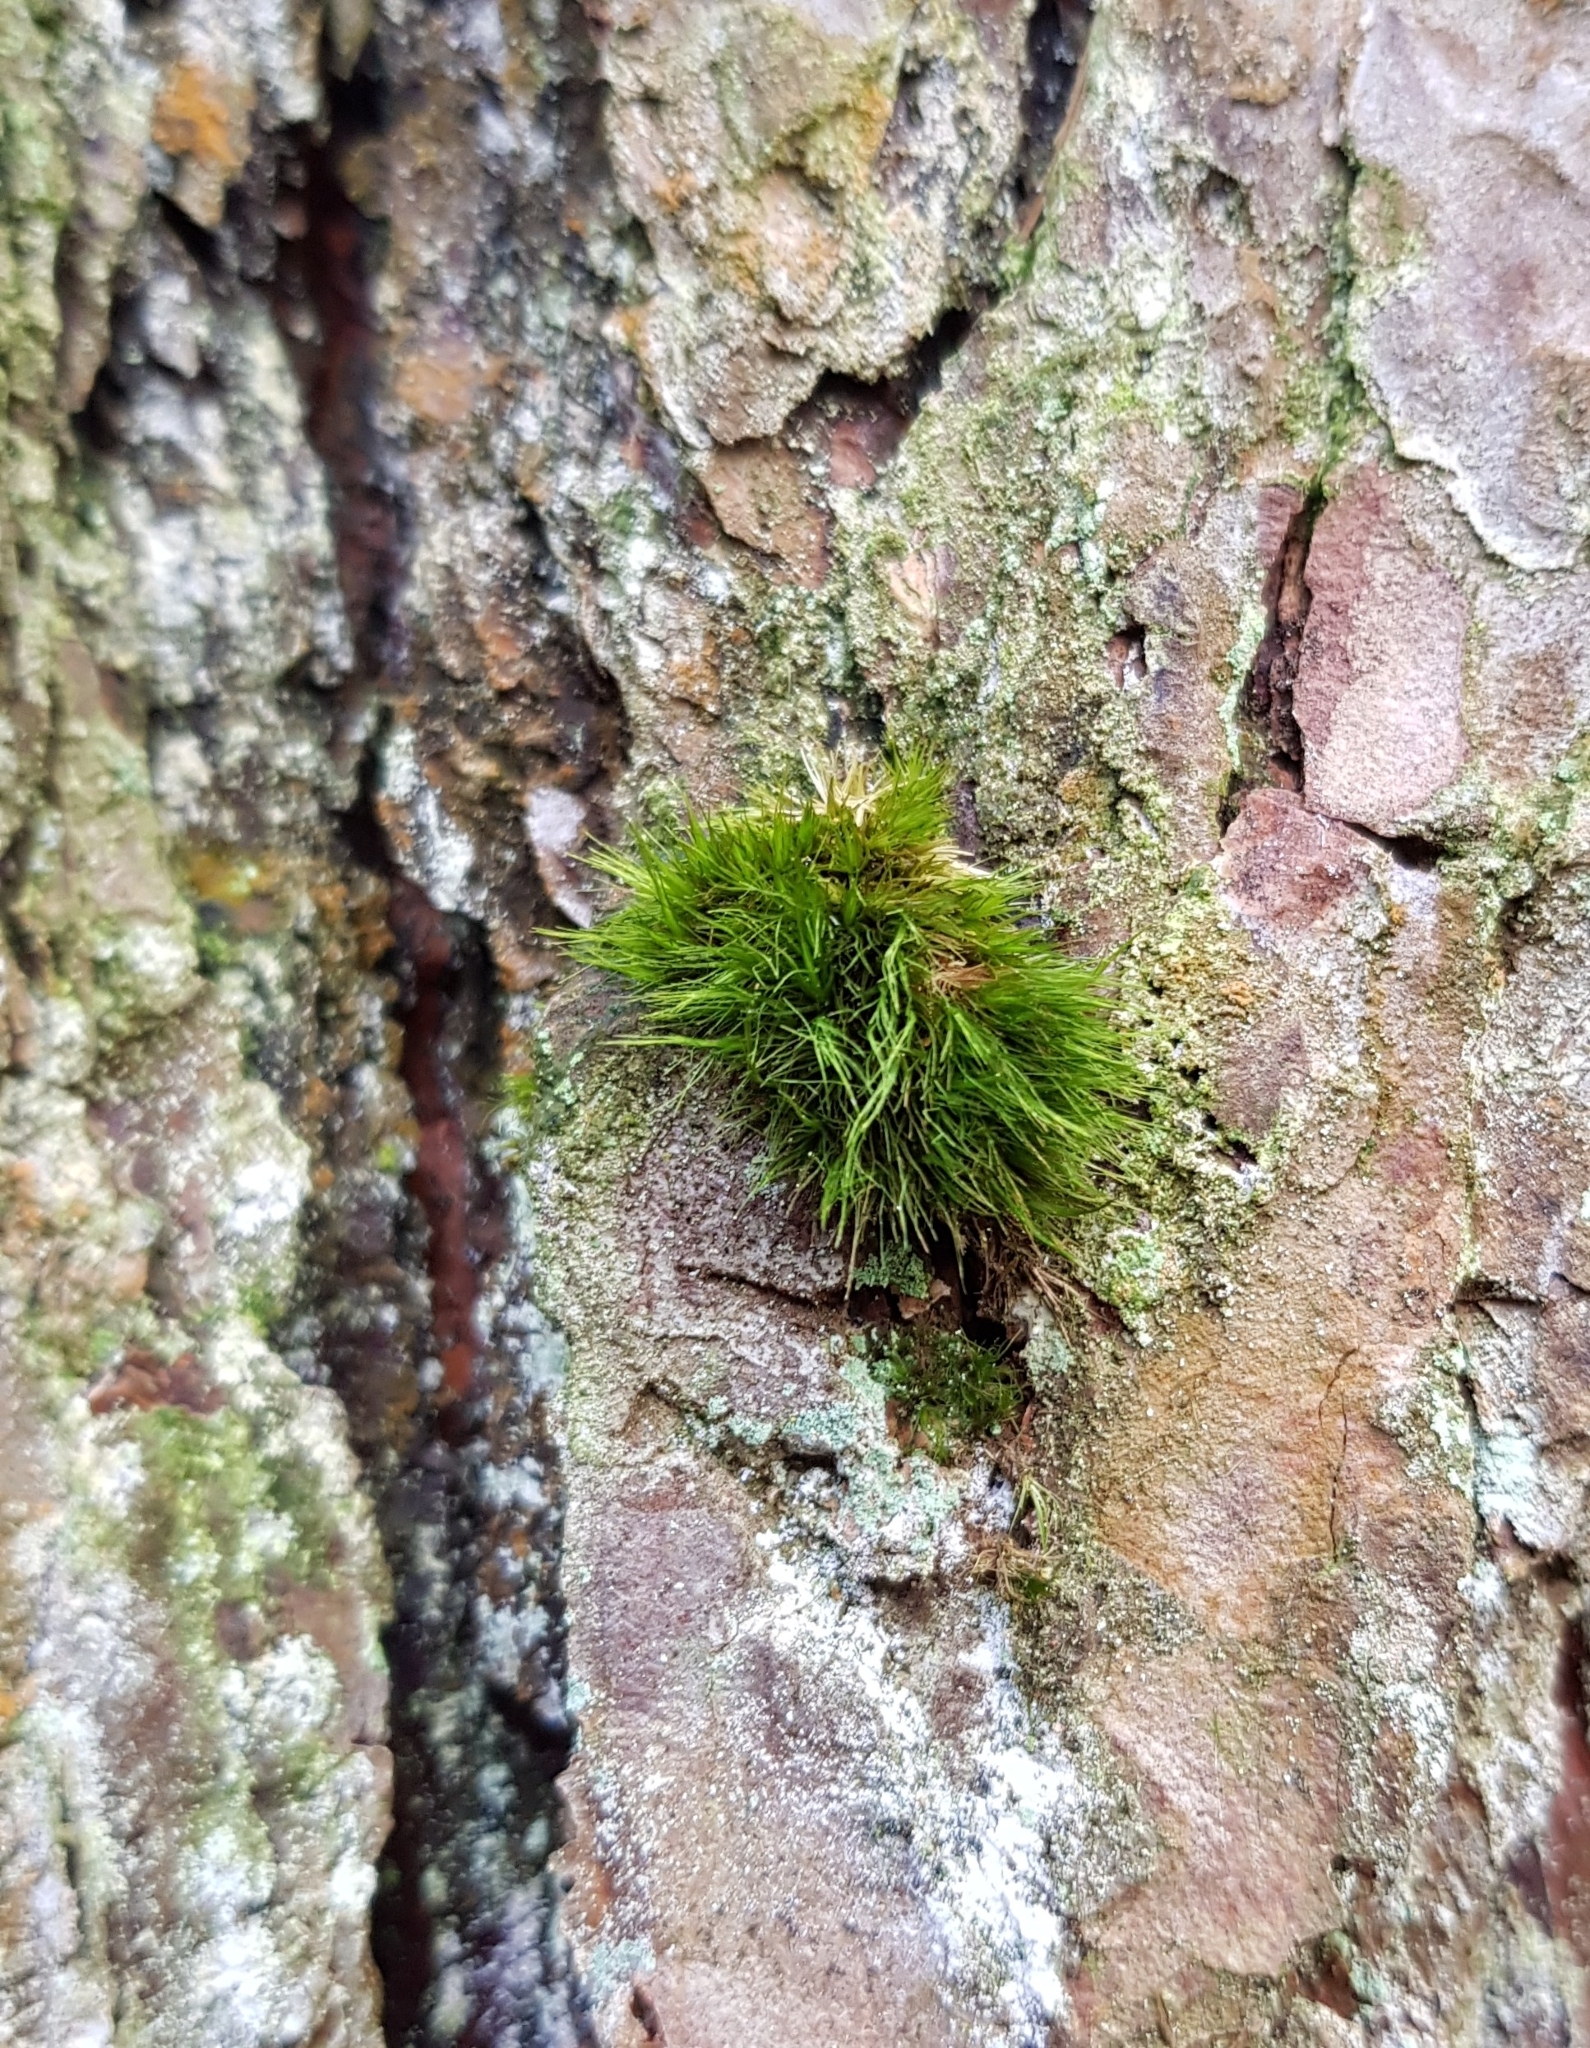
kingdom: Plantae
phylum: Bryophyta
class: Bryopsida
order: Dicranales
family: Dicranaceae
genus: Orthodicranum
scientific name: Orthodicranum tauricum
